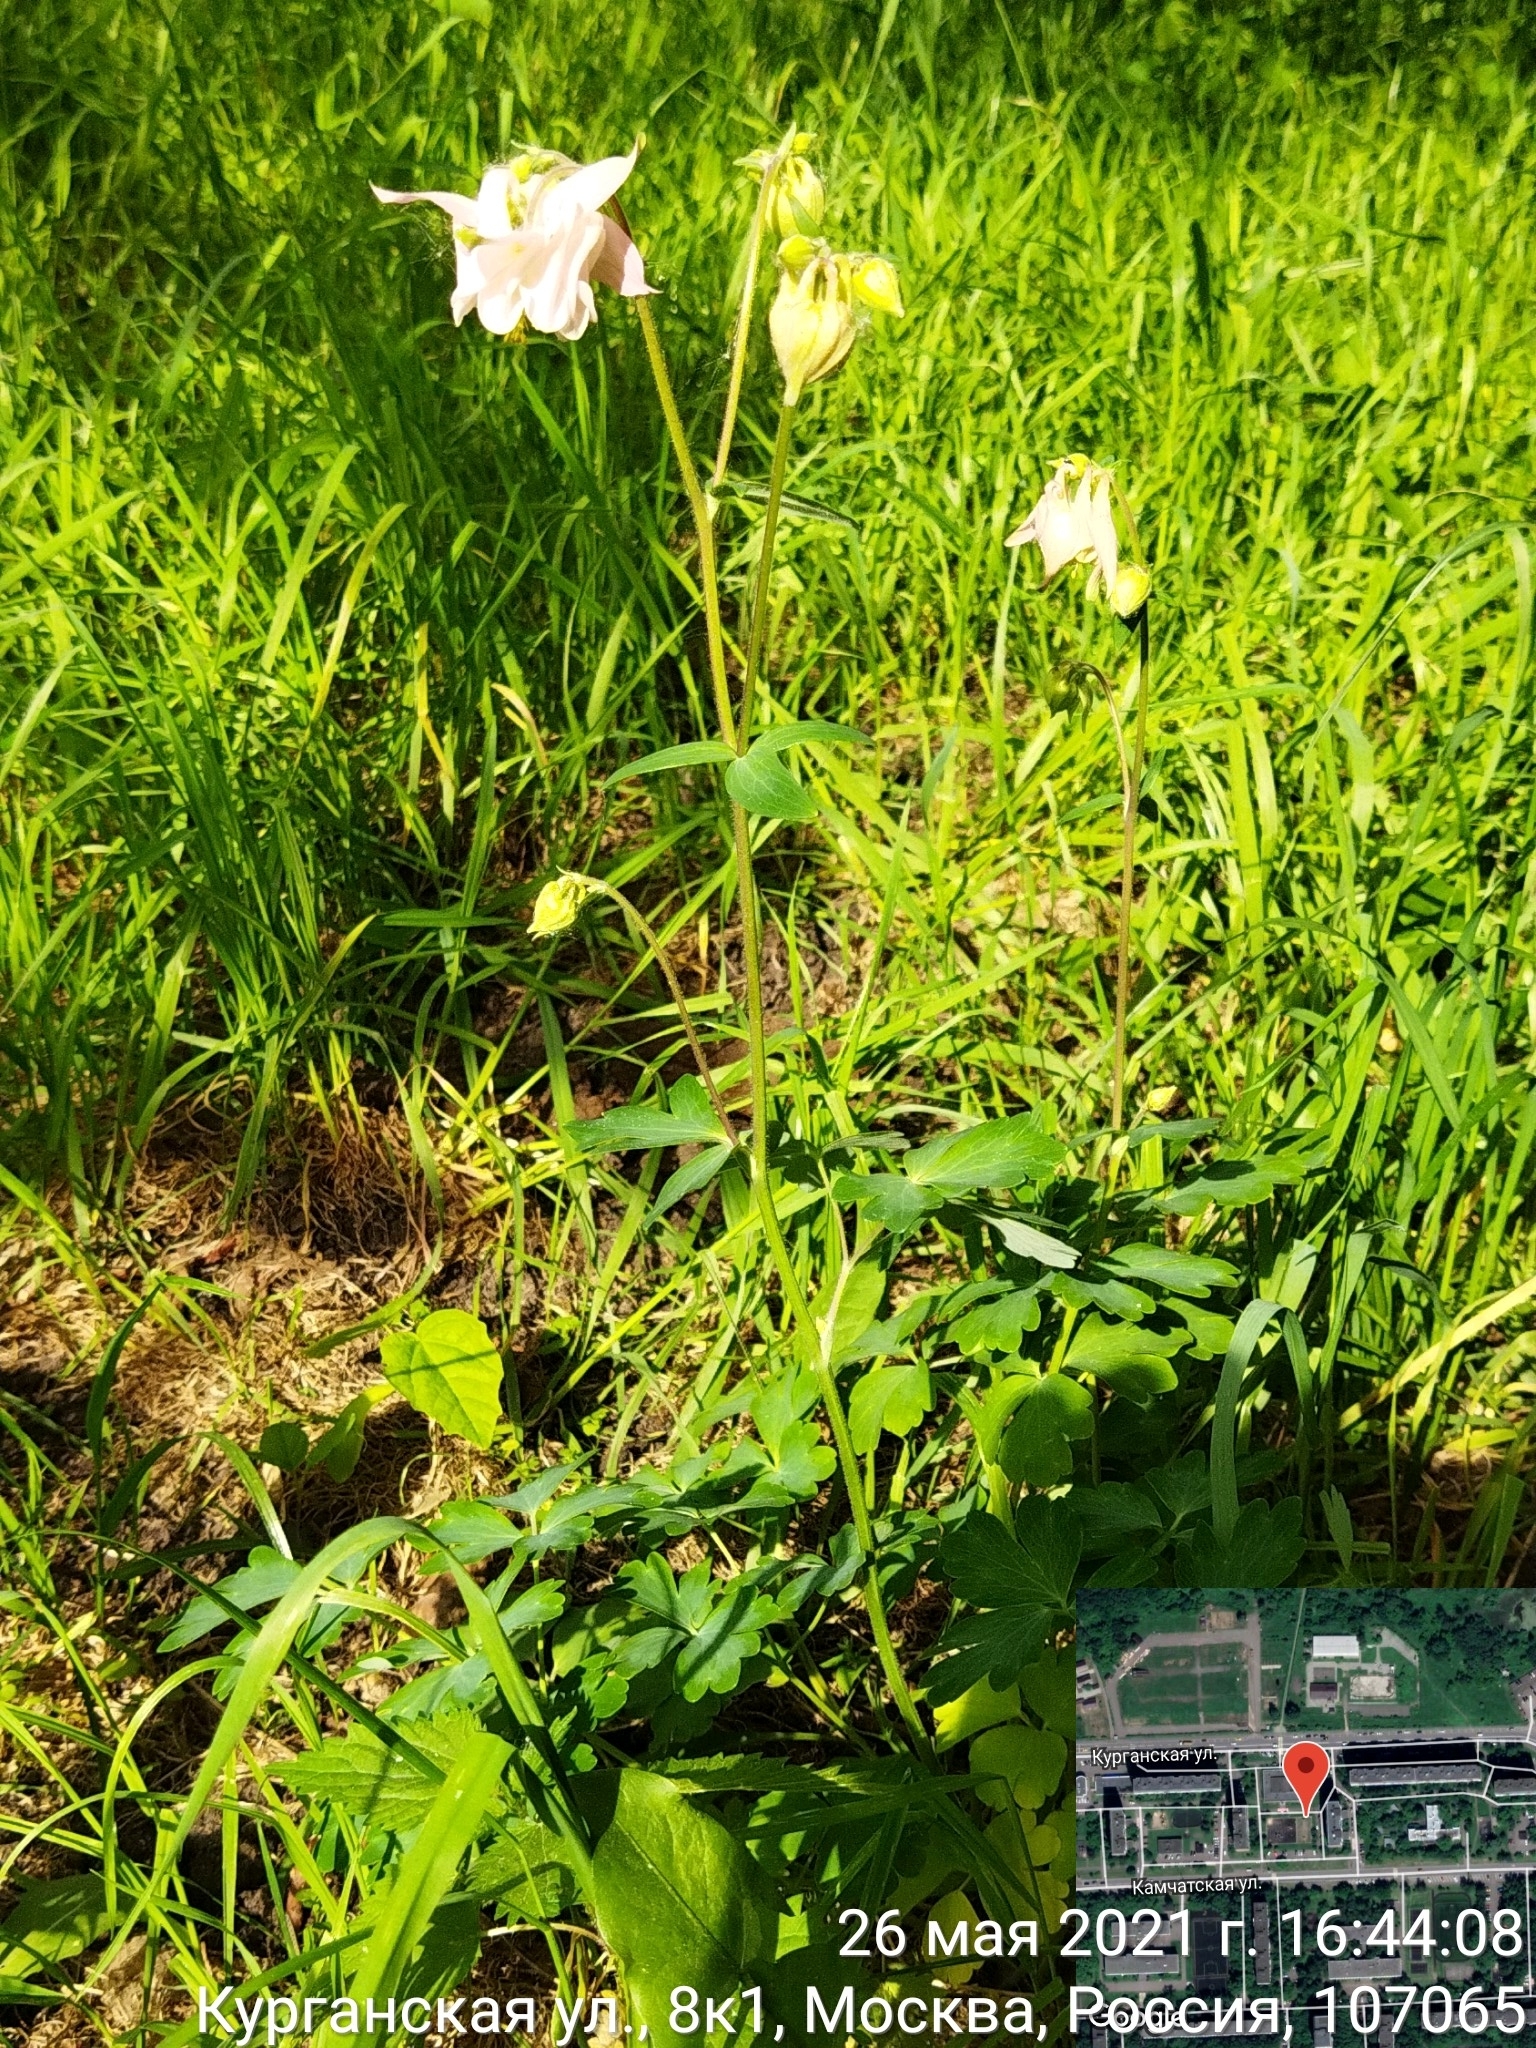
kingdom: Plantae
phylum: Tracheophyta
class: Magnoliopsida
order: Ranunculales
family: Ranunculaceae
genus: Aquilegia
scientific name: Aquilegia vulgaris
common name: Columbine
